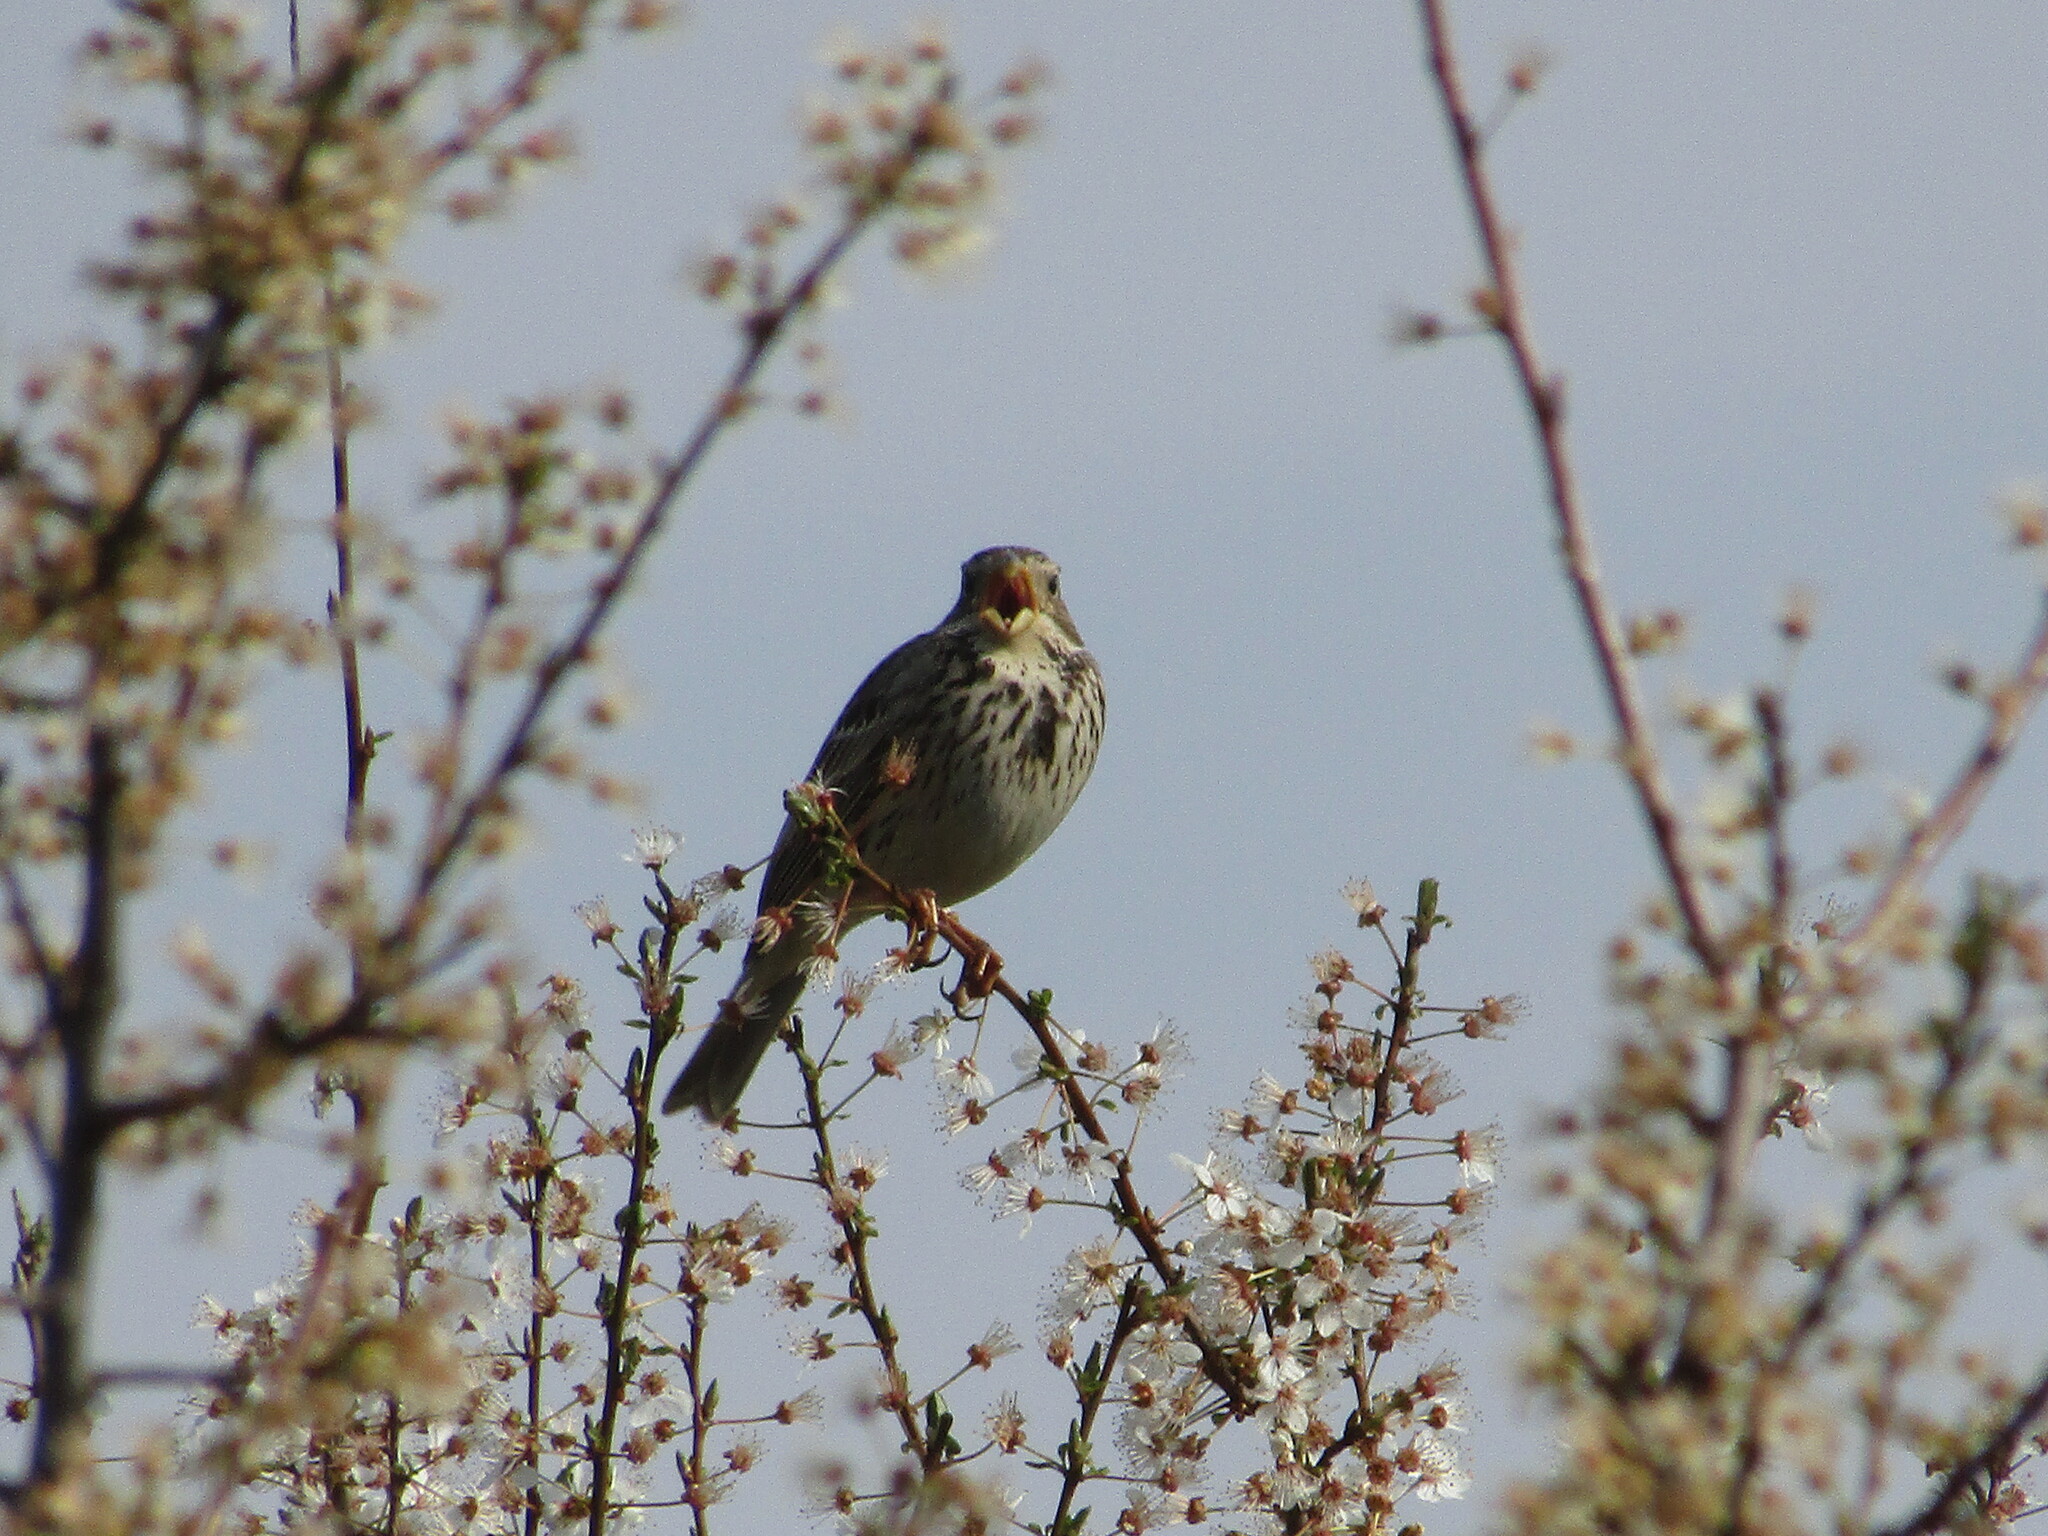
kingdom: Animalia
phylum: Chordata
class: Aves
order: Passeriformes
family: Emberizidae
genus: Emberiza
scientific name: Emberiza calandra
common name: Corn bunting
